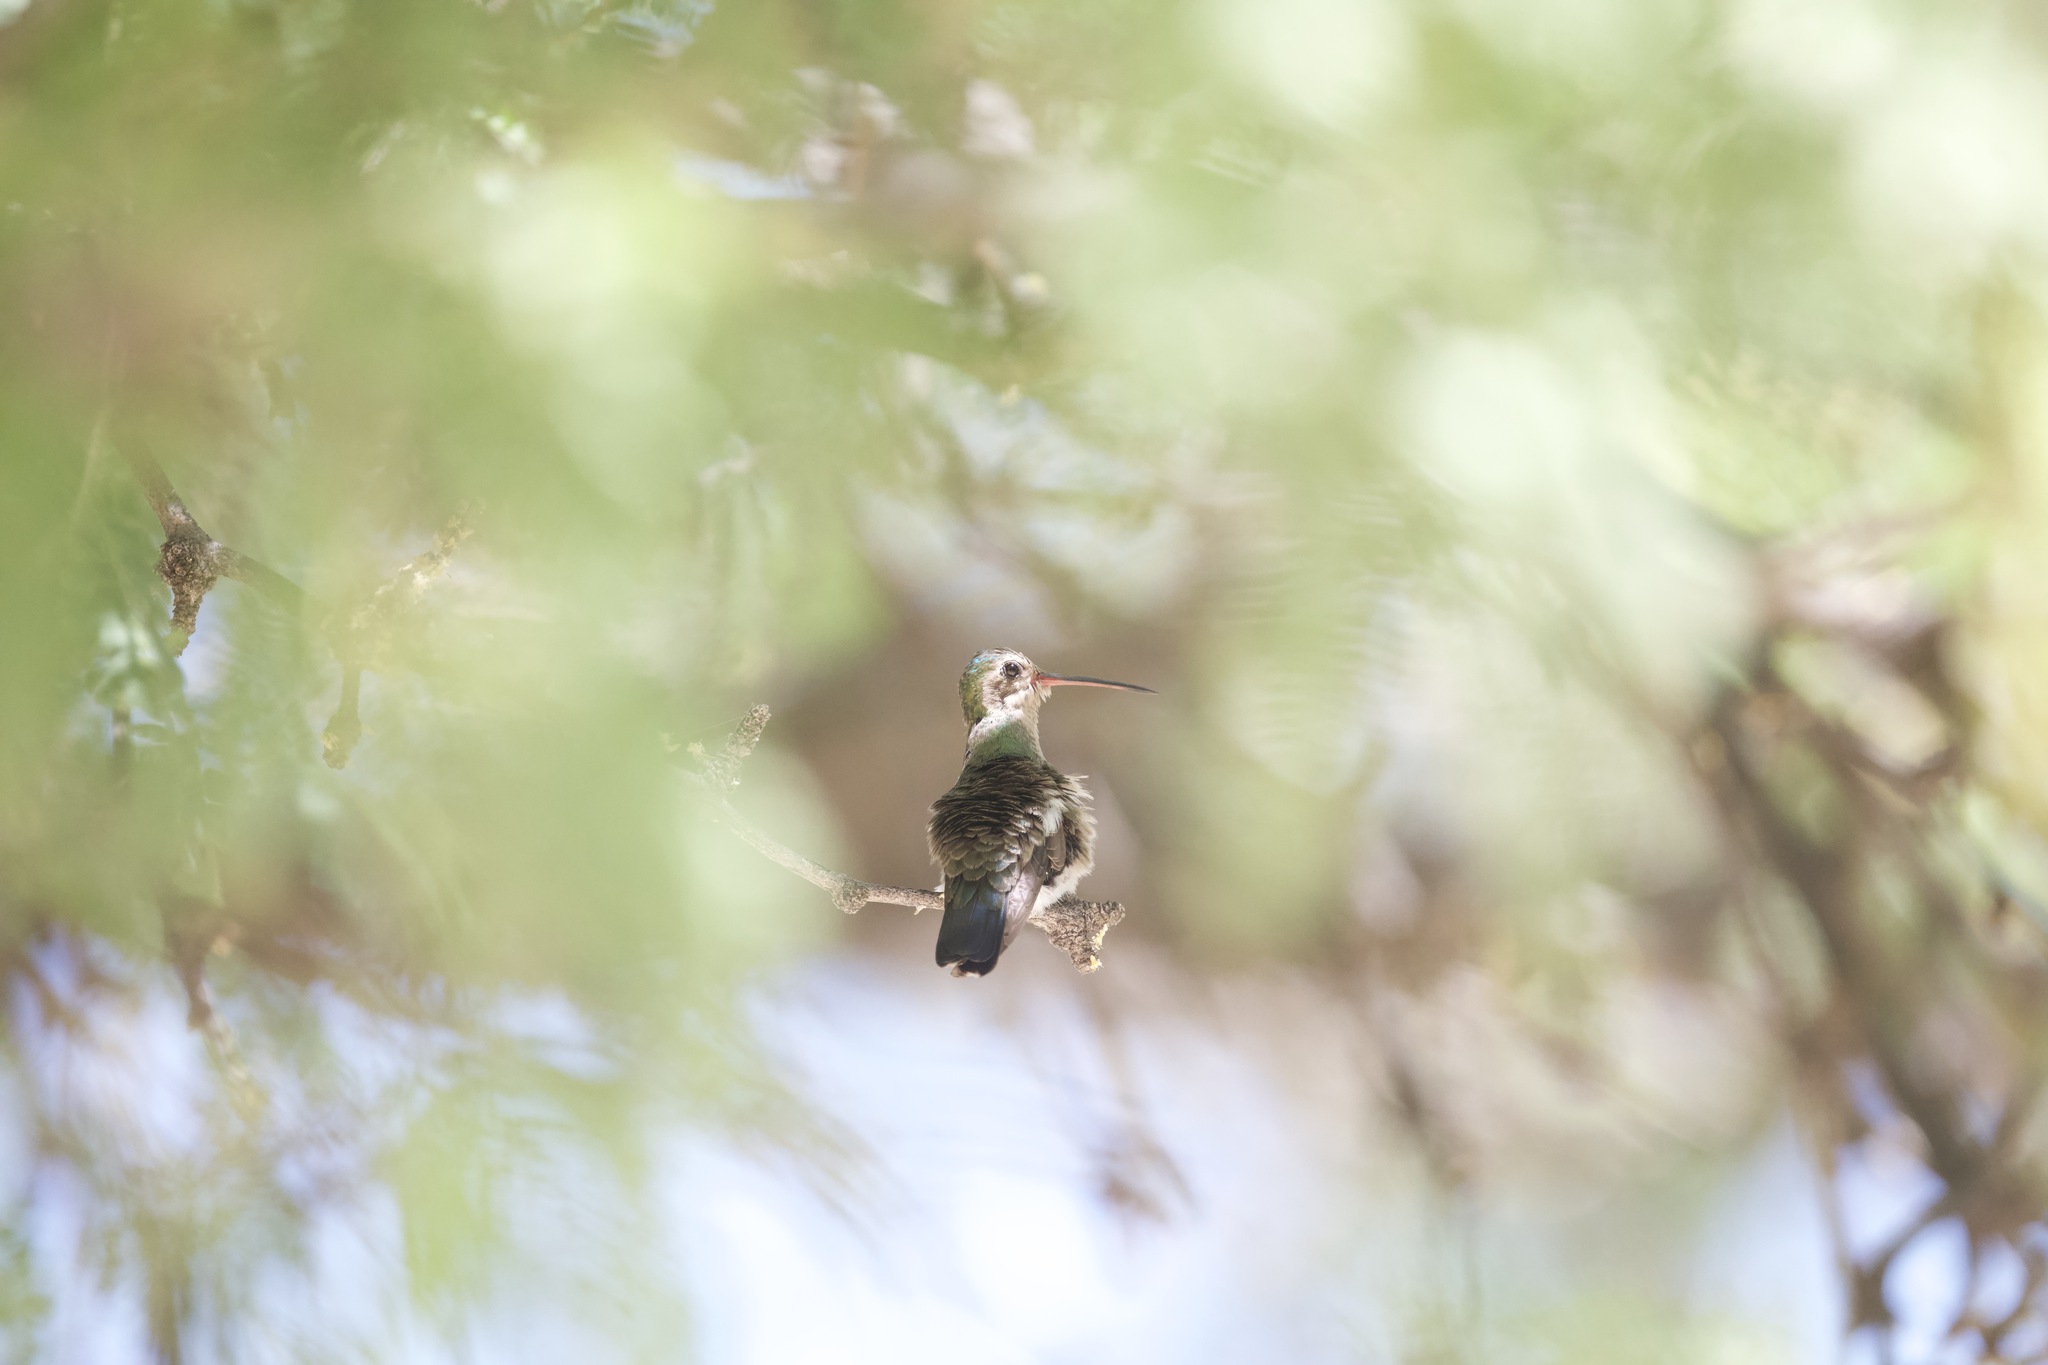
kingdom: Animalia
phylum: Chordata
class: Aves
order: Apodiformes
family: Trochilidae
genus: Cynanthus
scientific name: Cynanthus latirostris
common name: Broad-billed hummingbird
